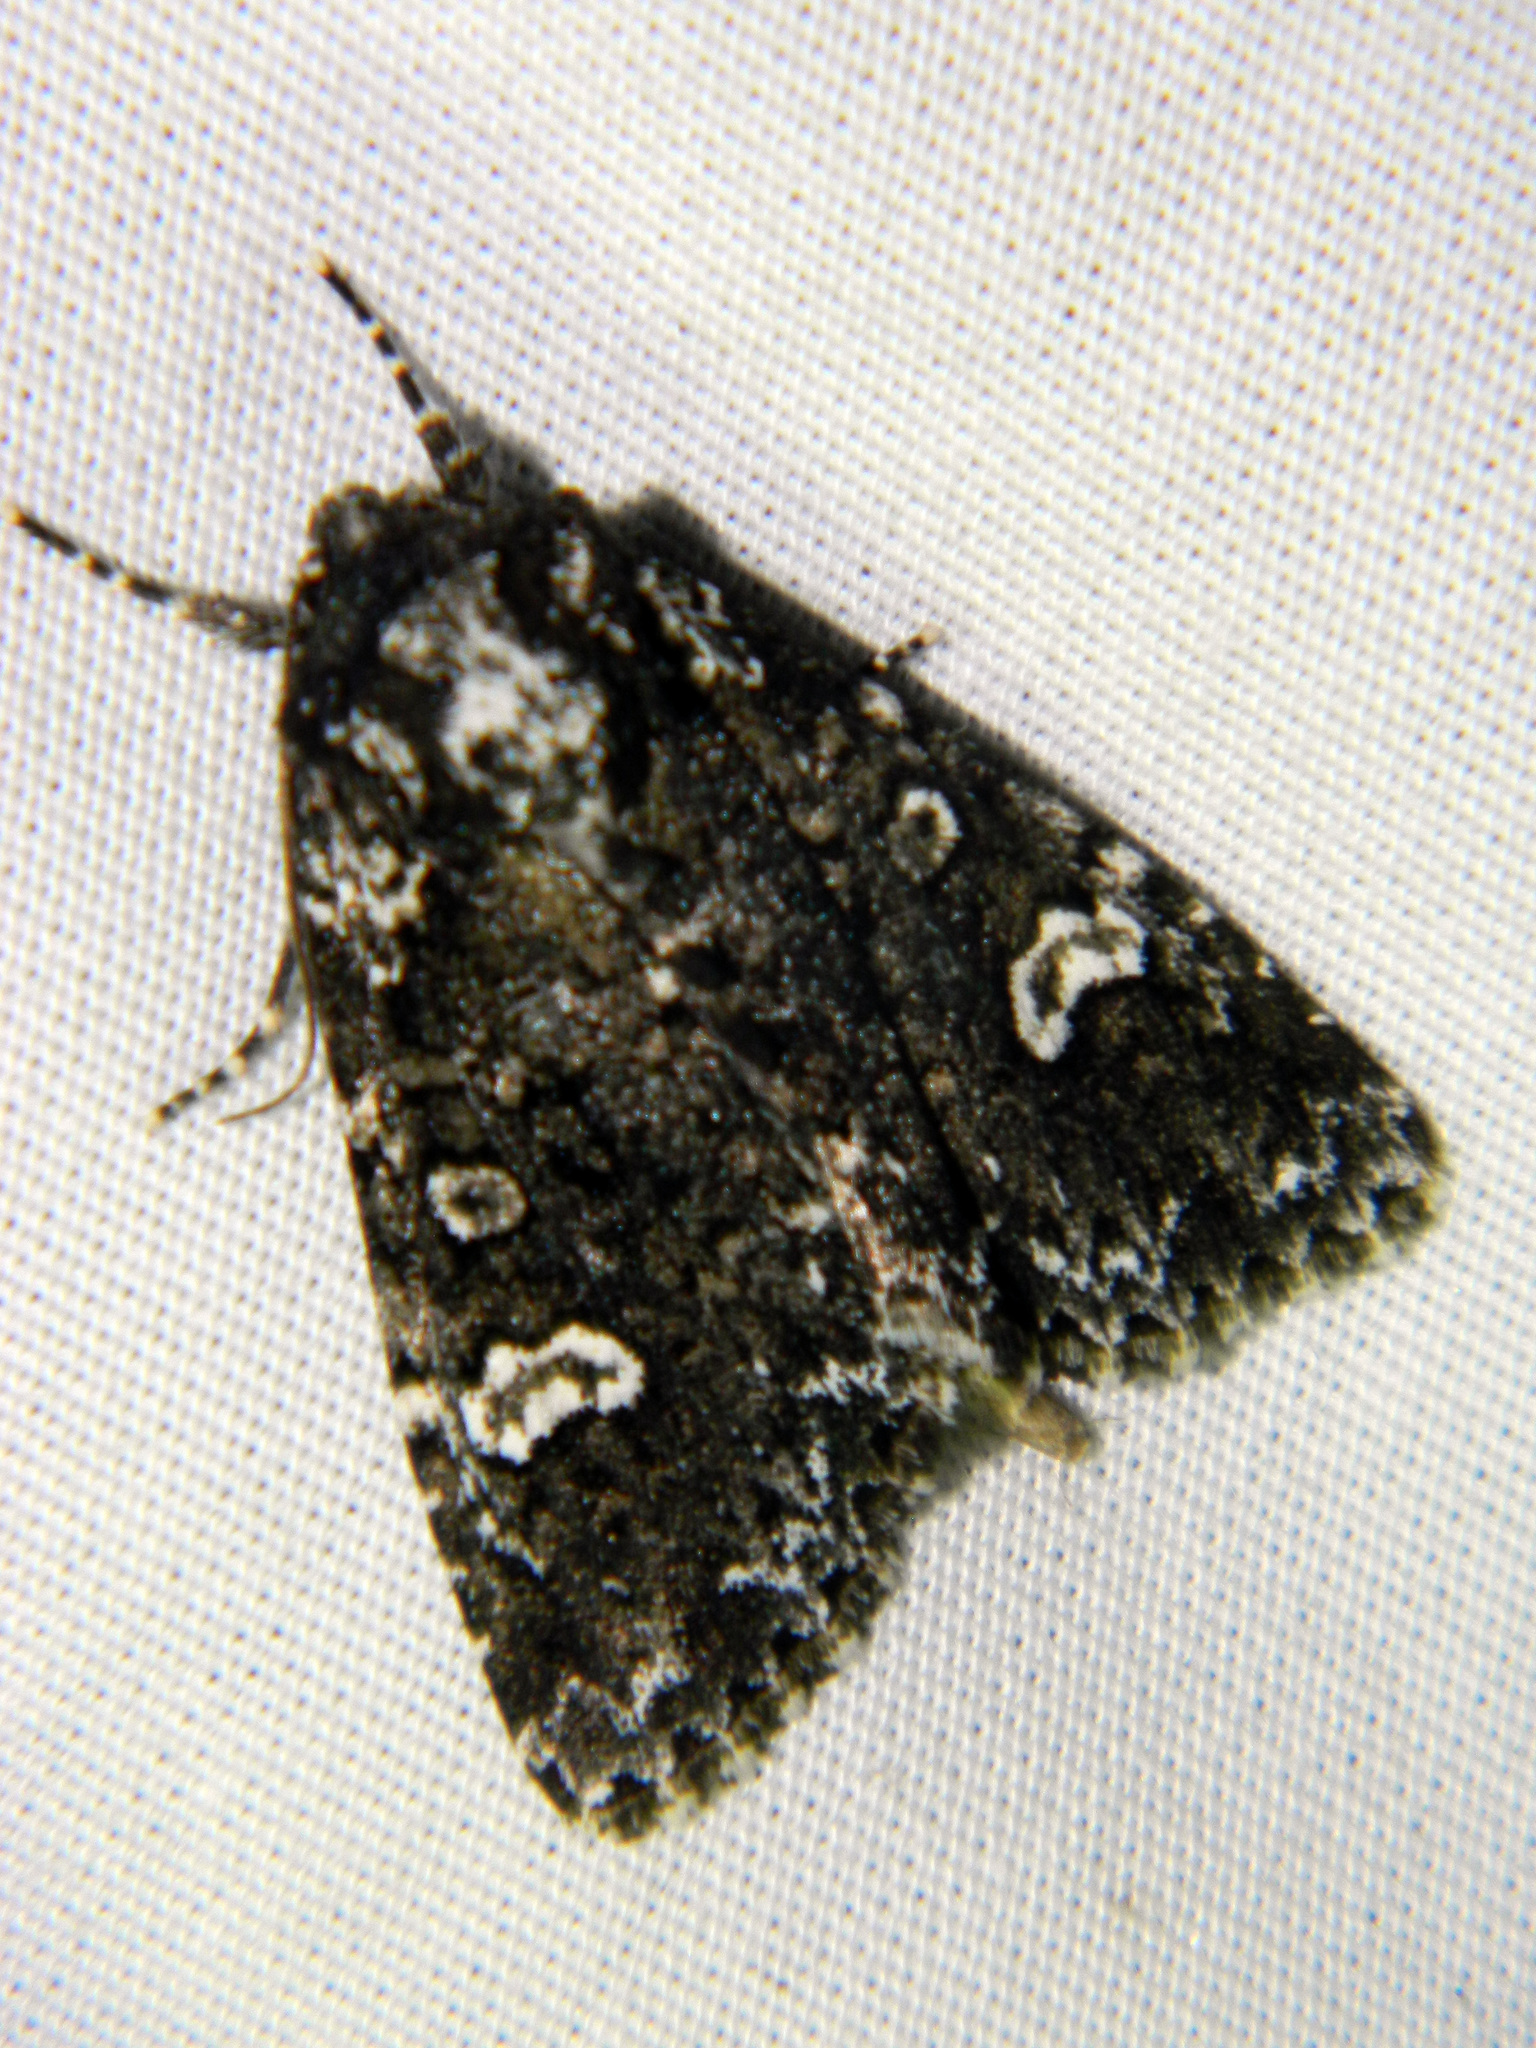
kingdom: Animalia
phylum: Arthropoda
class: Insecta
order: Lepidoptera
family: Noctuidae
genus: Melanchra
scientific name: Melanchra adjuncta
